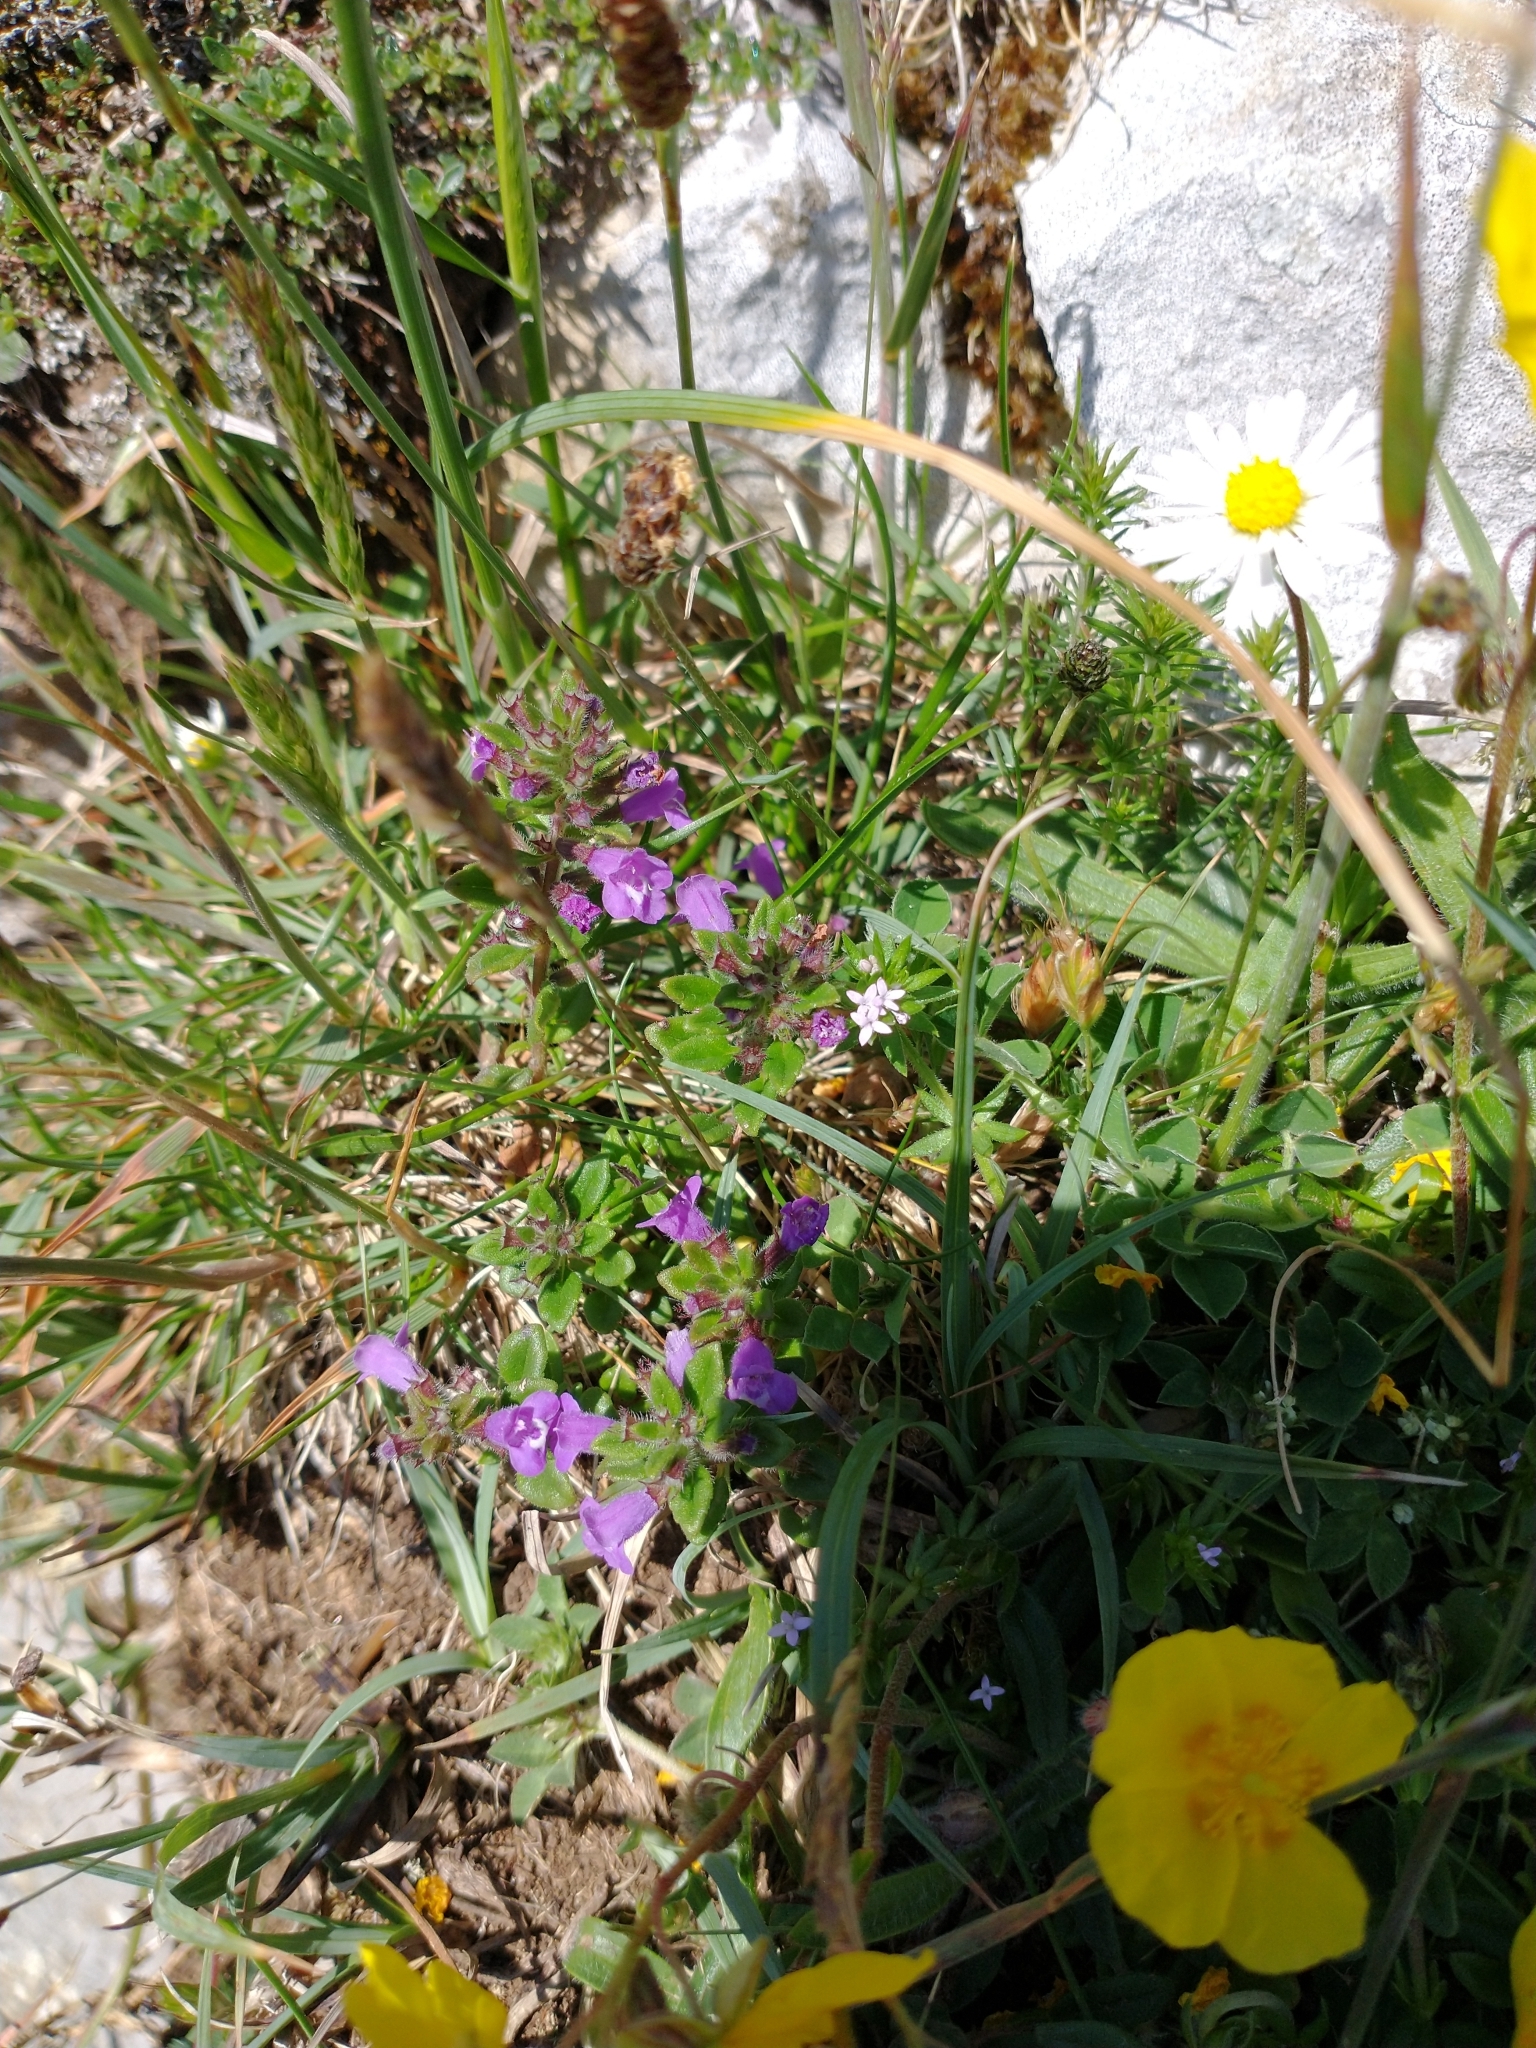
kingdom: Plantae
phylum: Tracheophyta
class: Magnoliopsida
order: Lamiales
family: Lamiaceae
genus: Clinopodium
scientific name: Clinopodium acinos
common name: Basil thyme
